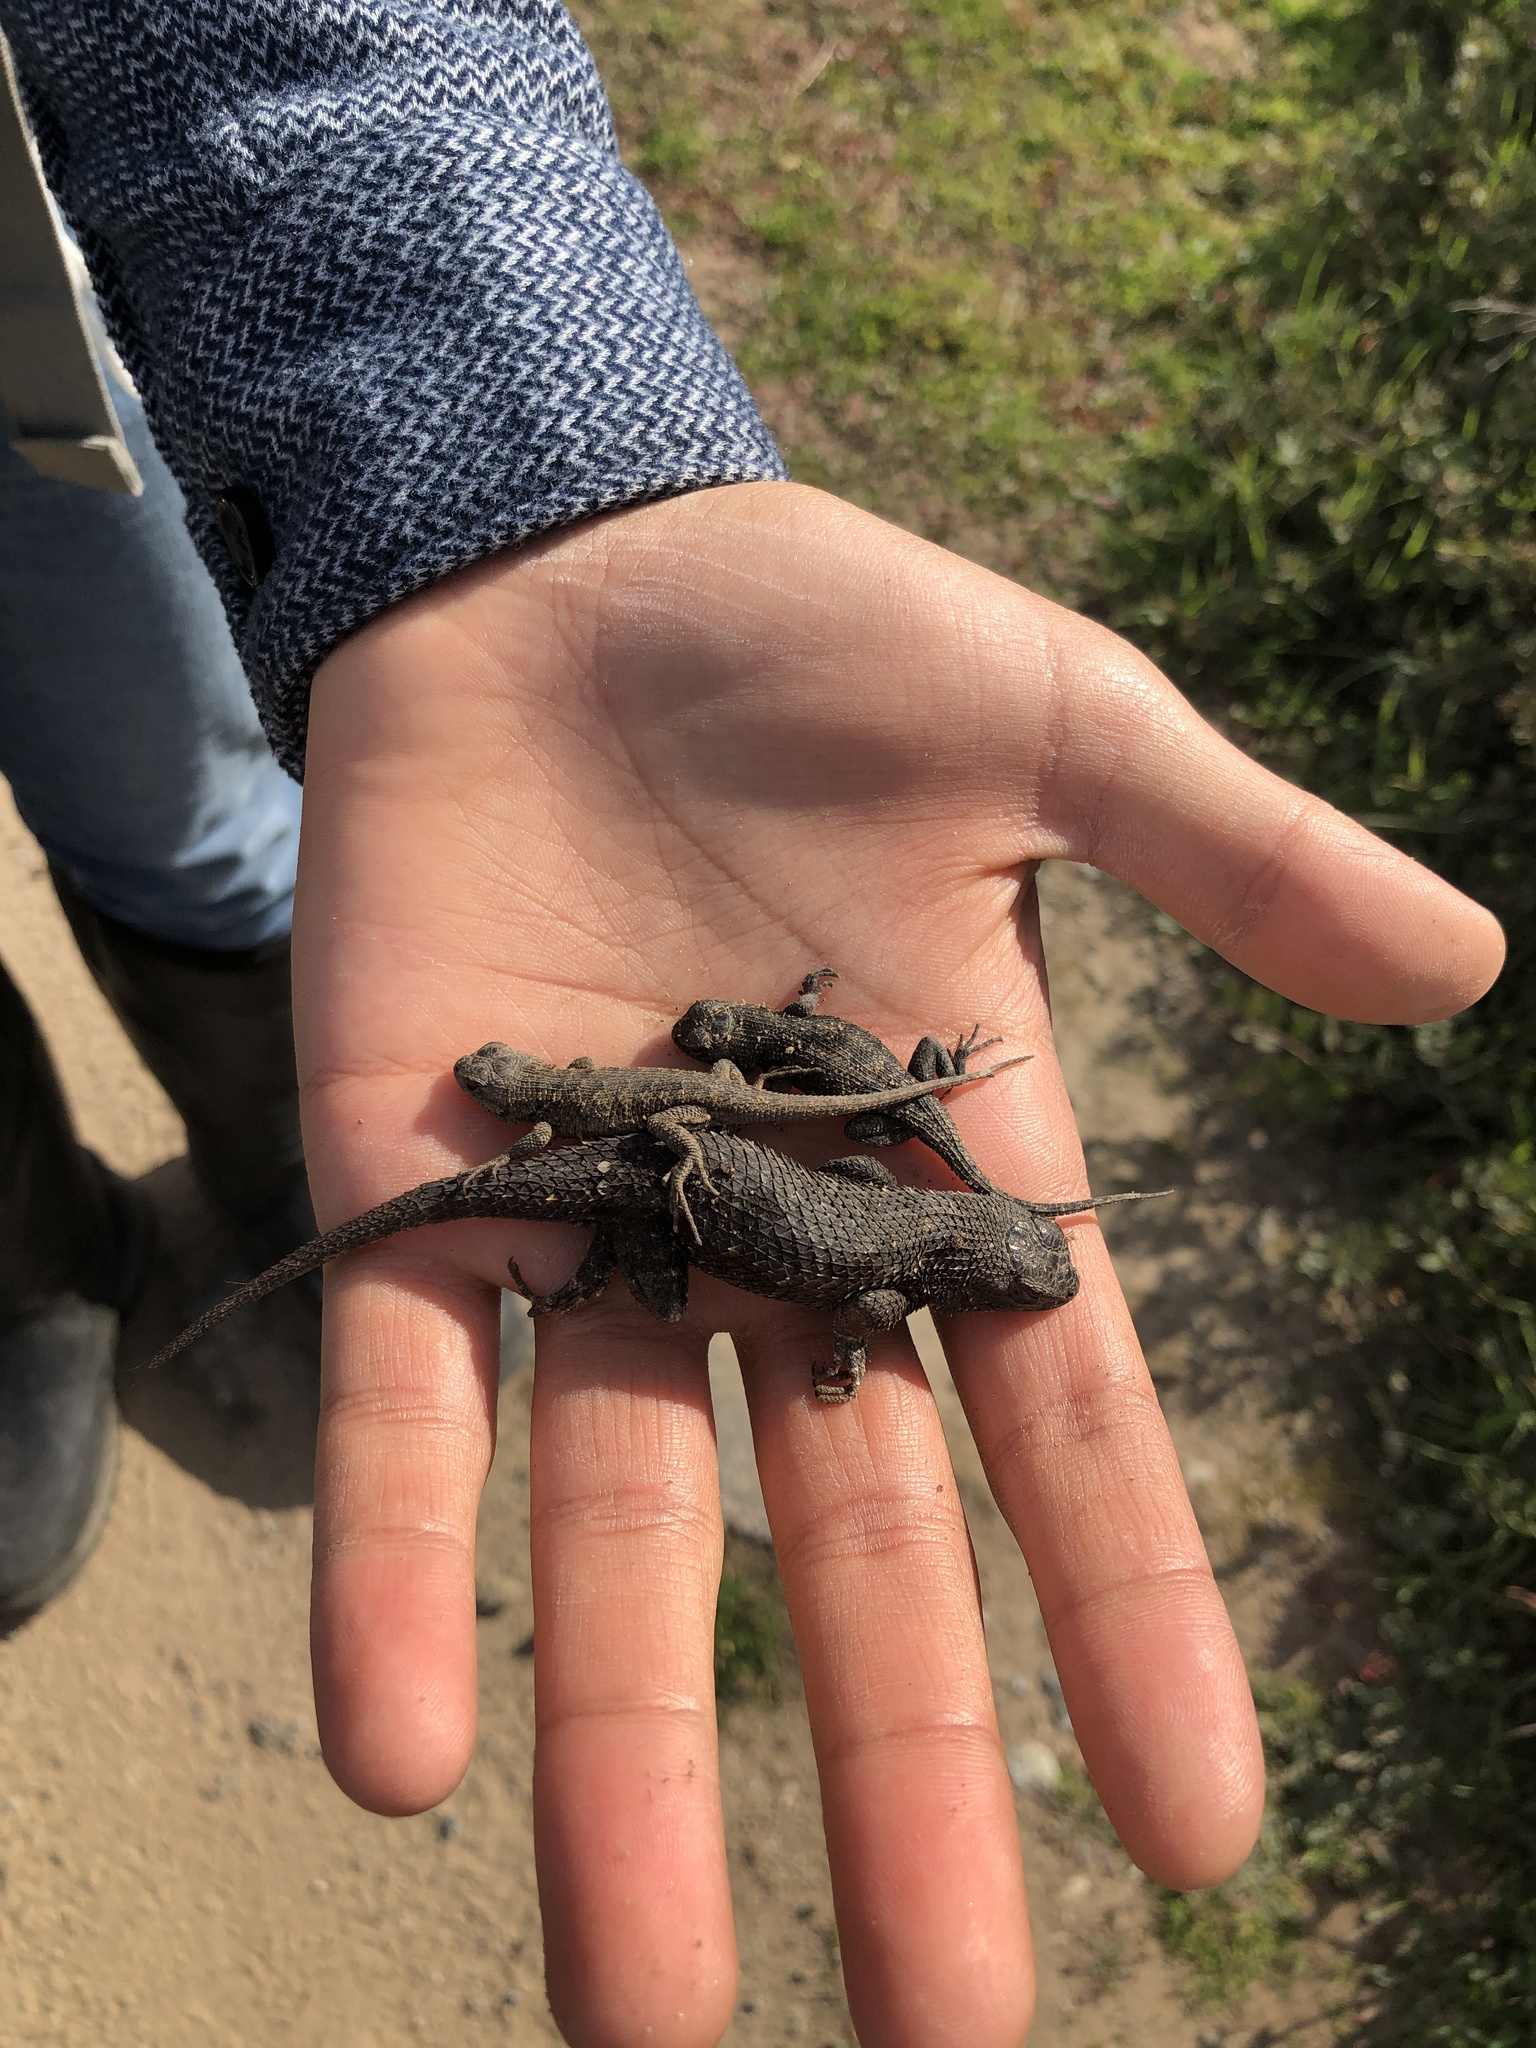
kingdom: Animalia
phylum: Chordata
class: Squamata
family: Phrynosomatidae
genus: Sceloporus
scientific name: Sceloporus occidentalis
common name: Western fence lizard
